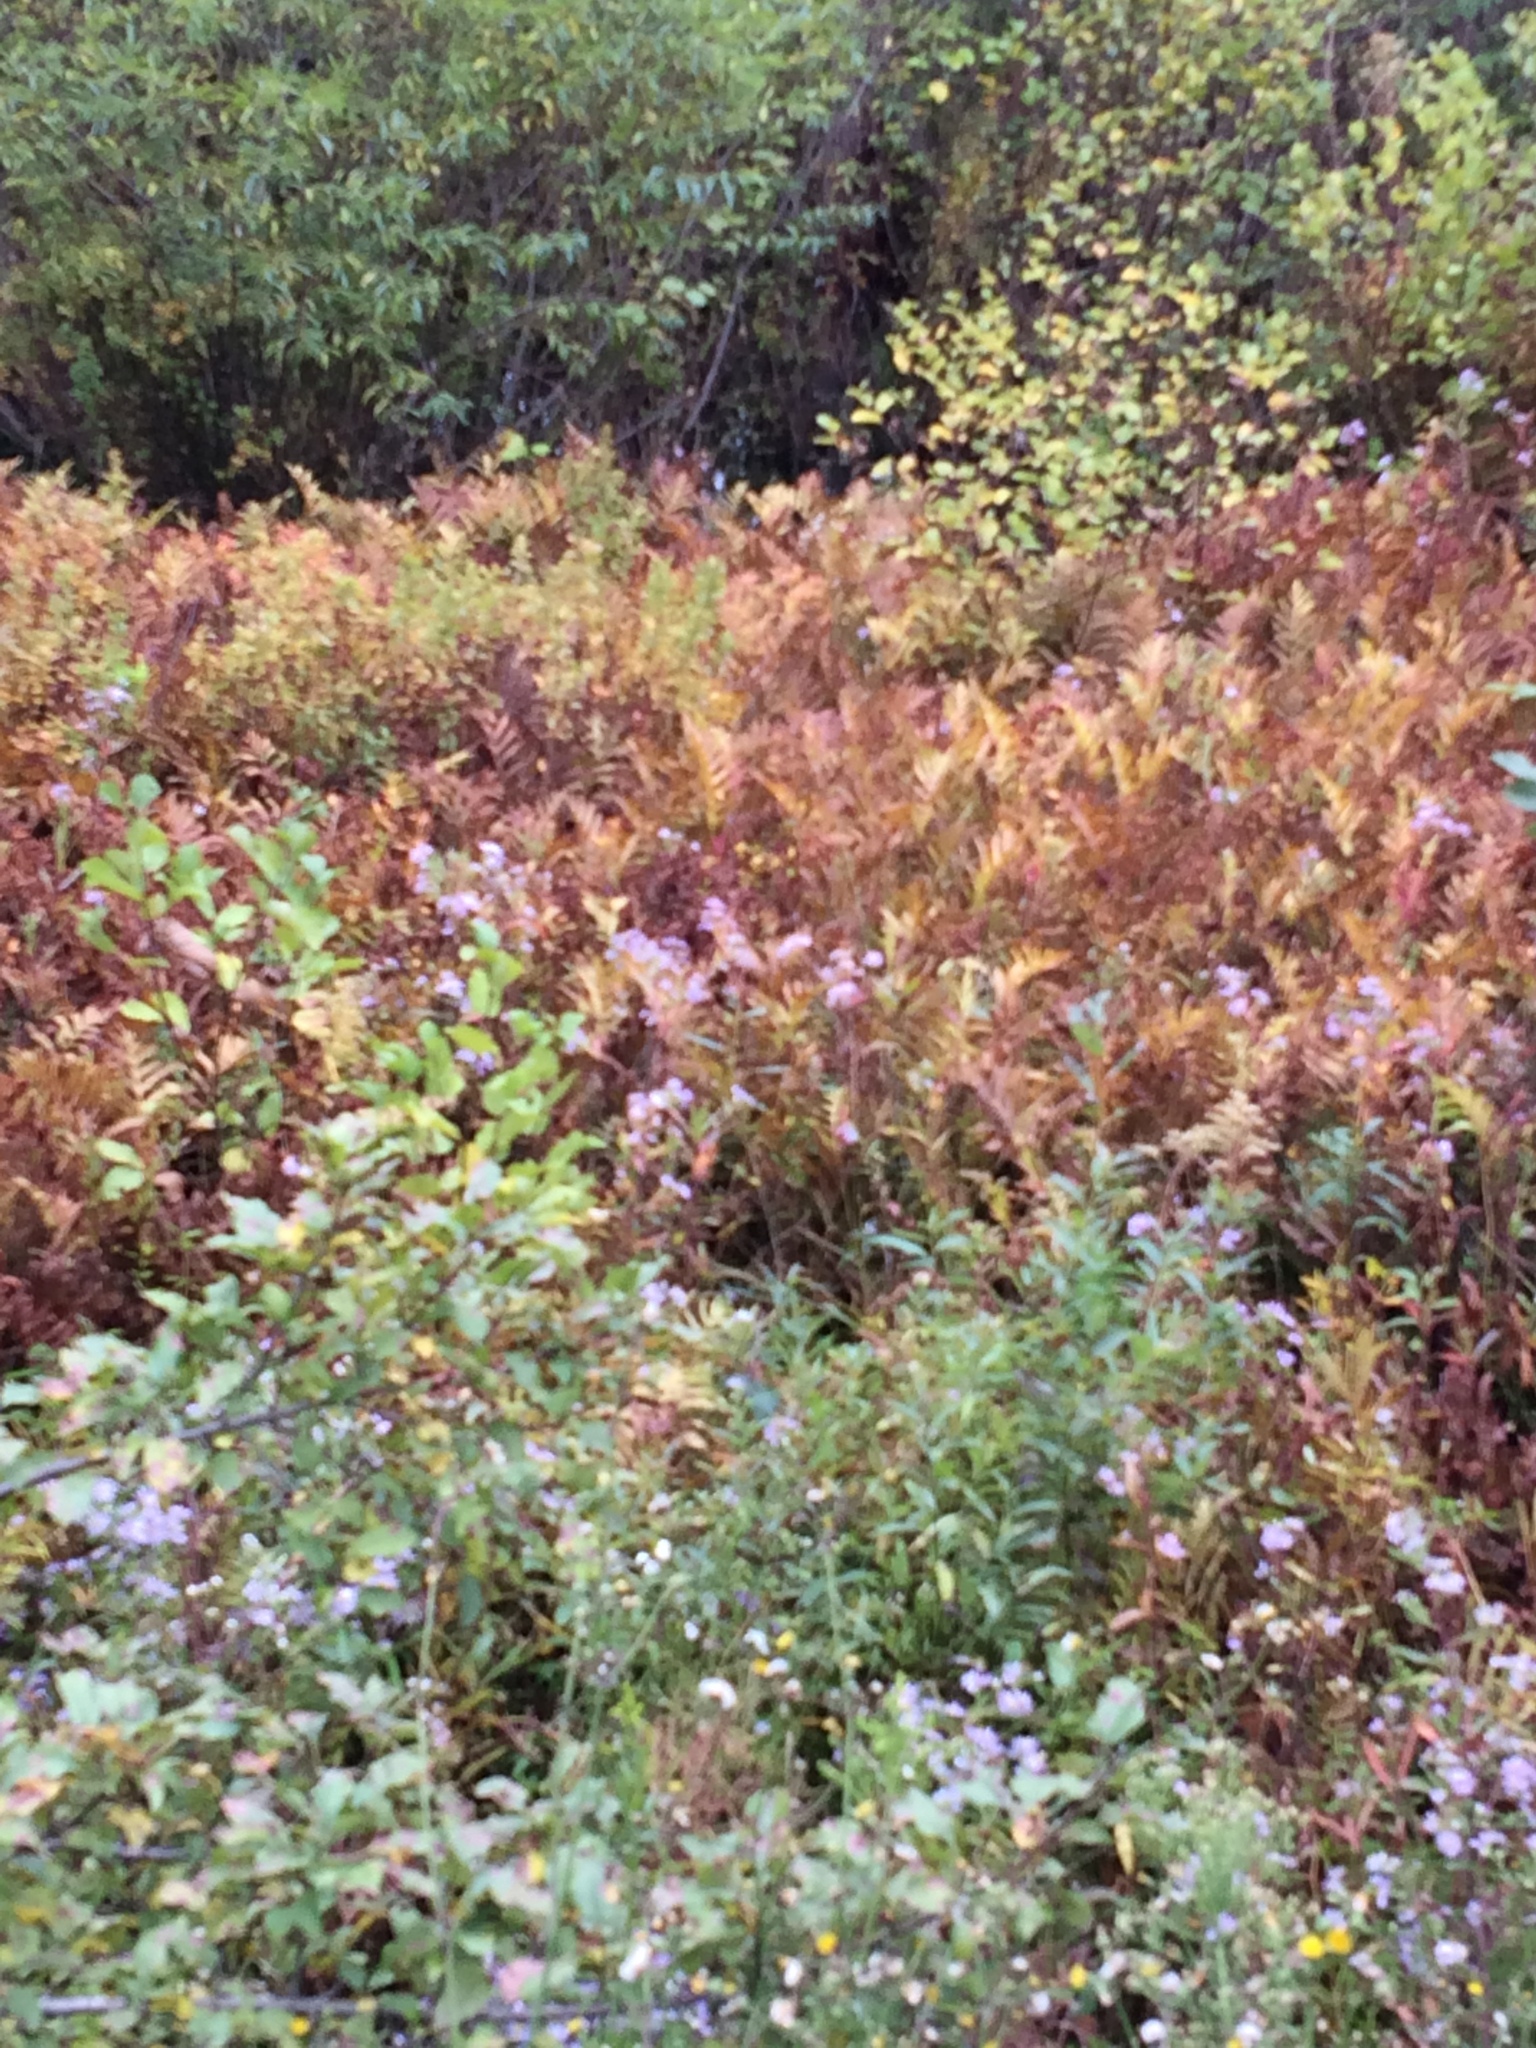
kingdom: Plantae
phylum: Tracheophyta
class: Polypodiopsida
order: Polypodiales
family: Onocleaceae
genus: Onoclea
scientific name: Onoclea sensibilis
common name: Sensitive fern
